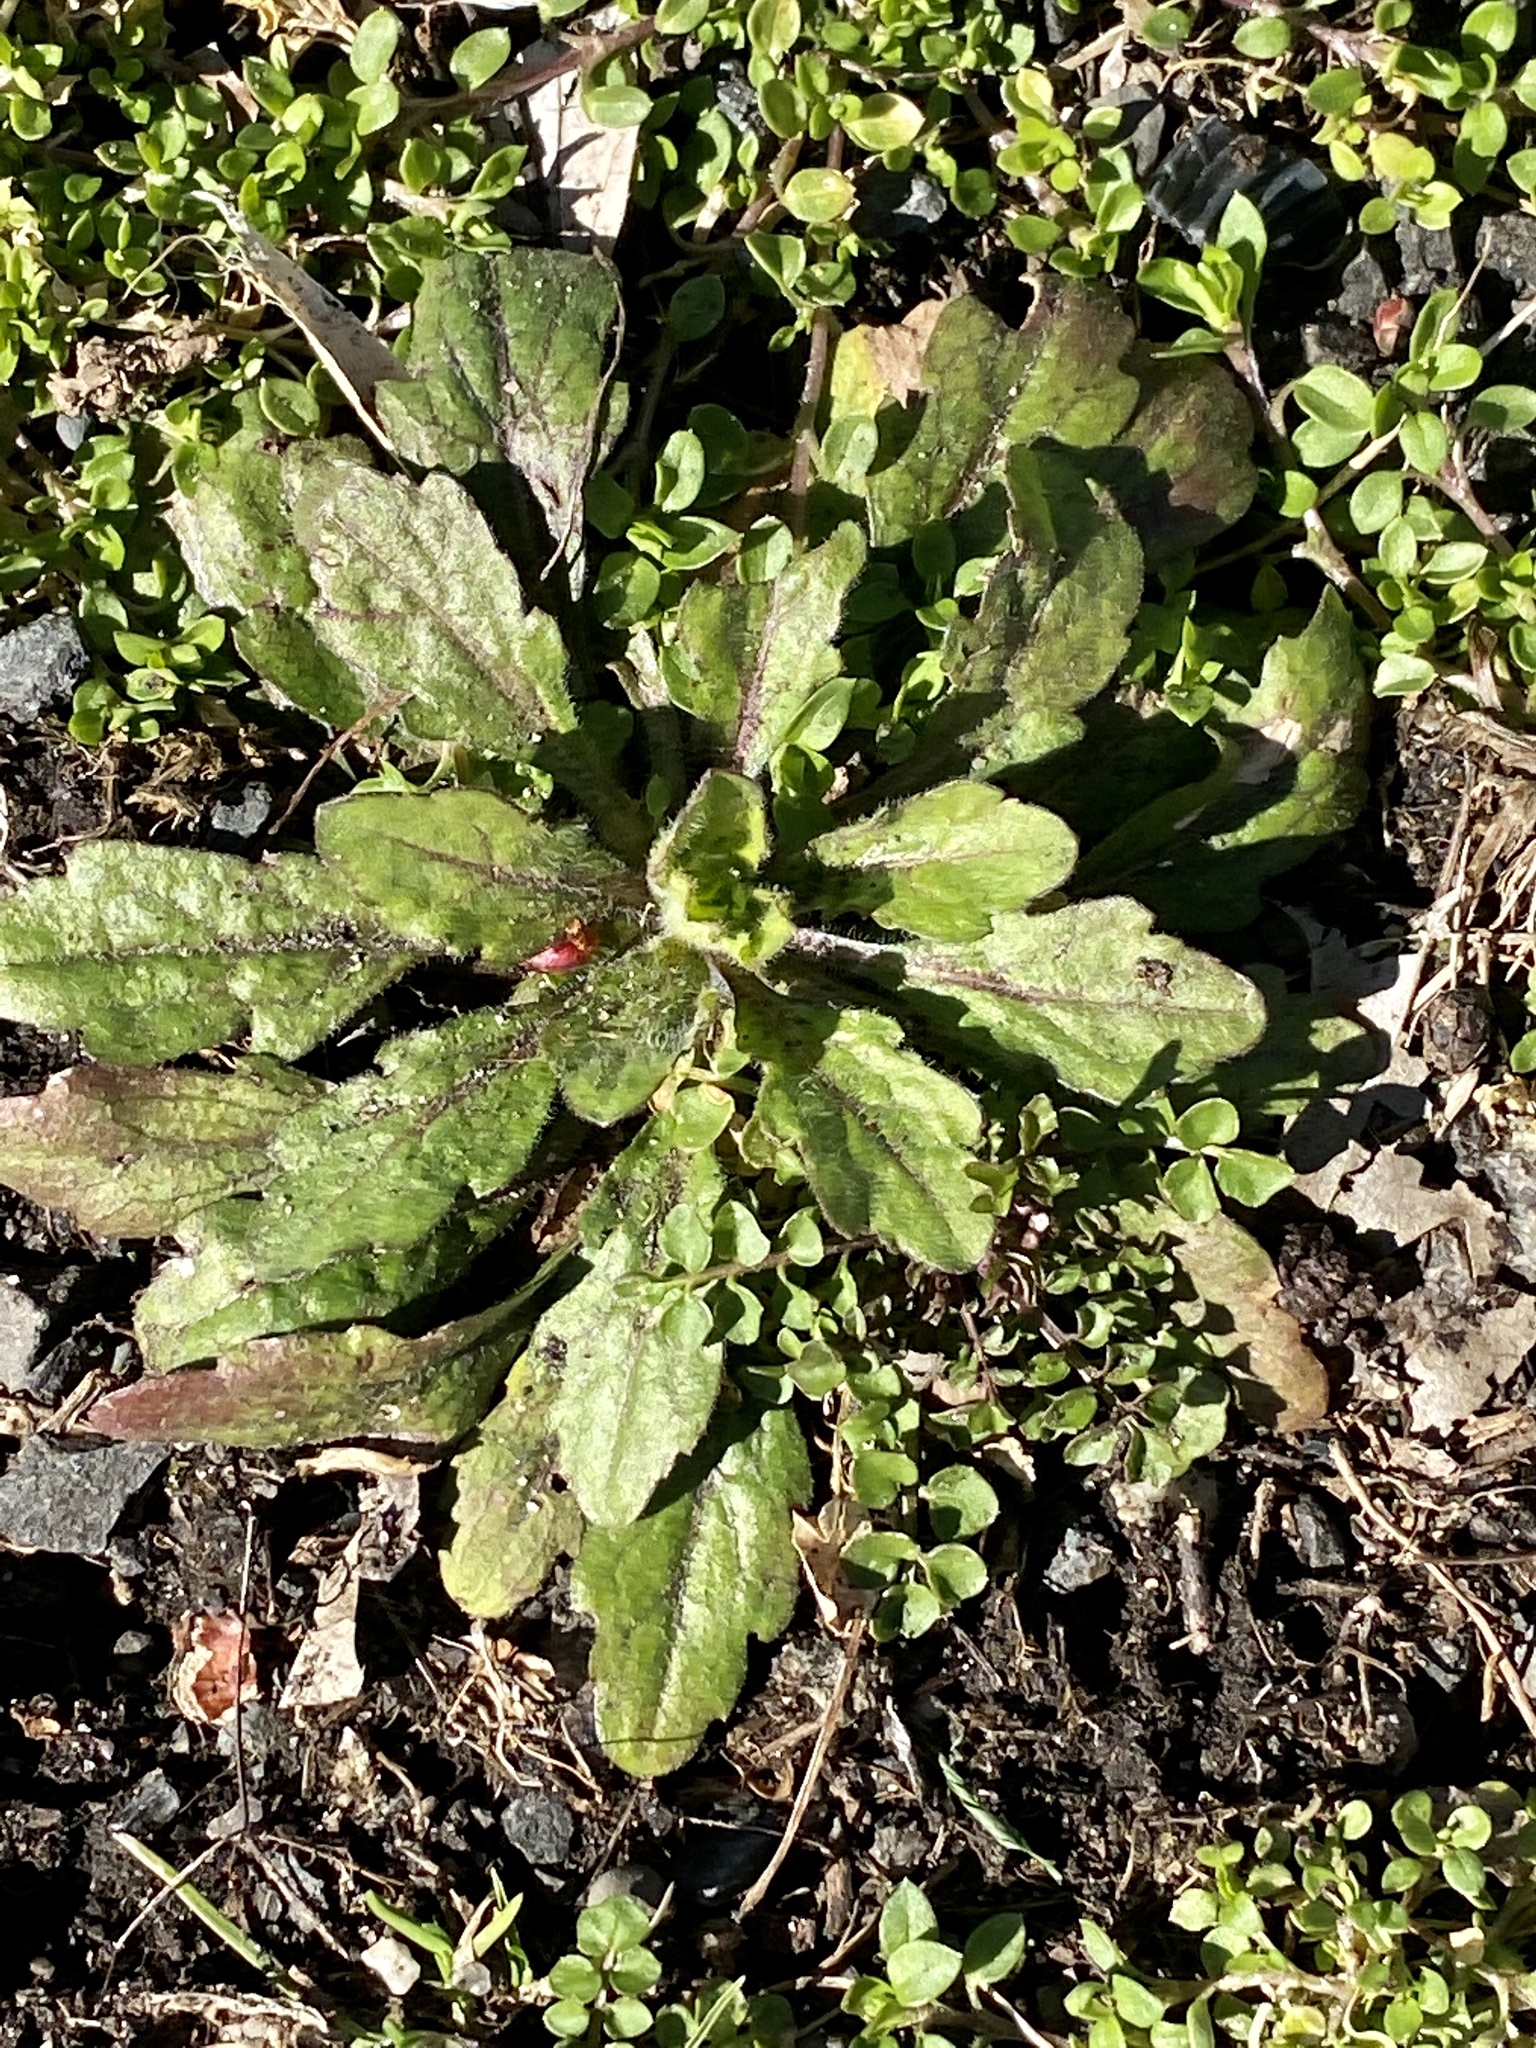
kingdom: Plantae
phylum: Tracheophyta
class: Magnoliopsida
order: Asterales
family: Asteraceae
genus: Erigeron
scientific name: Erigeron canadensis
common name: Canadian fleabane
